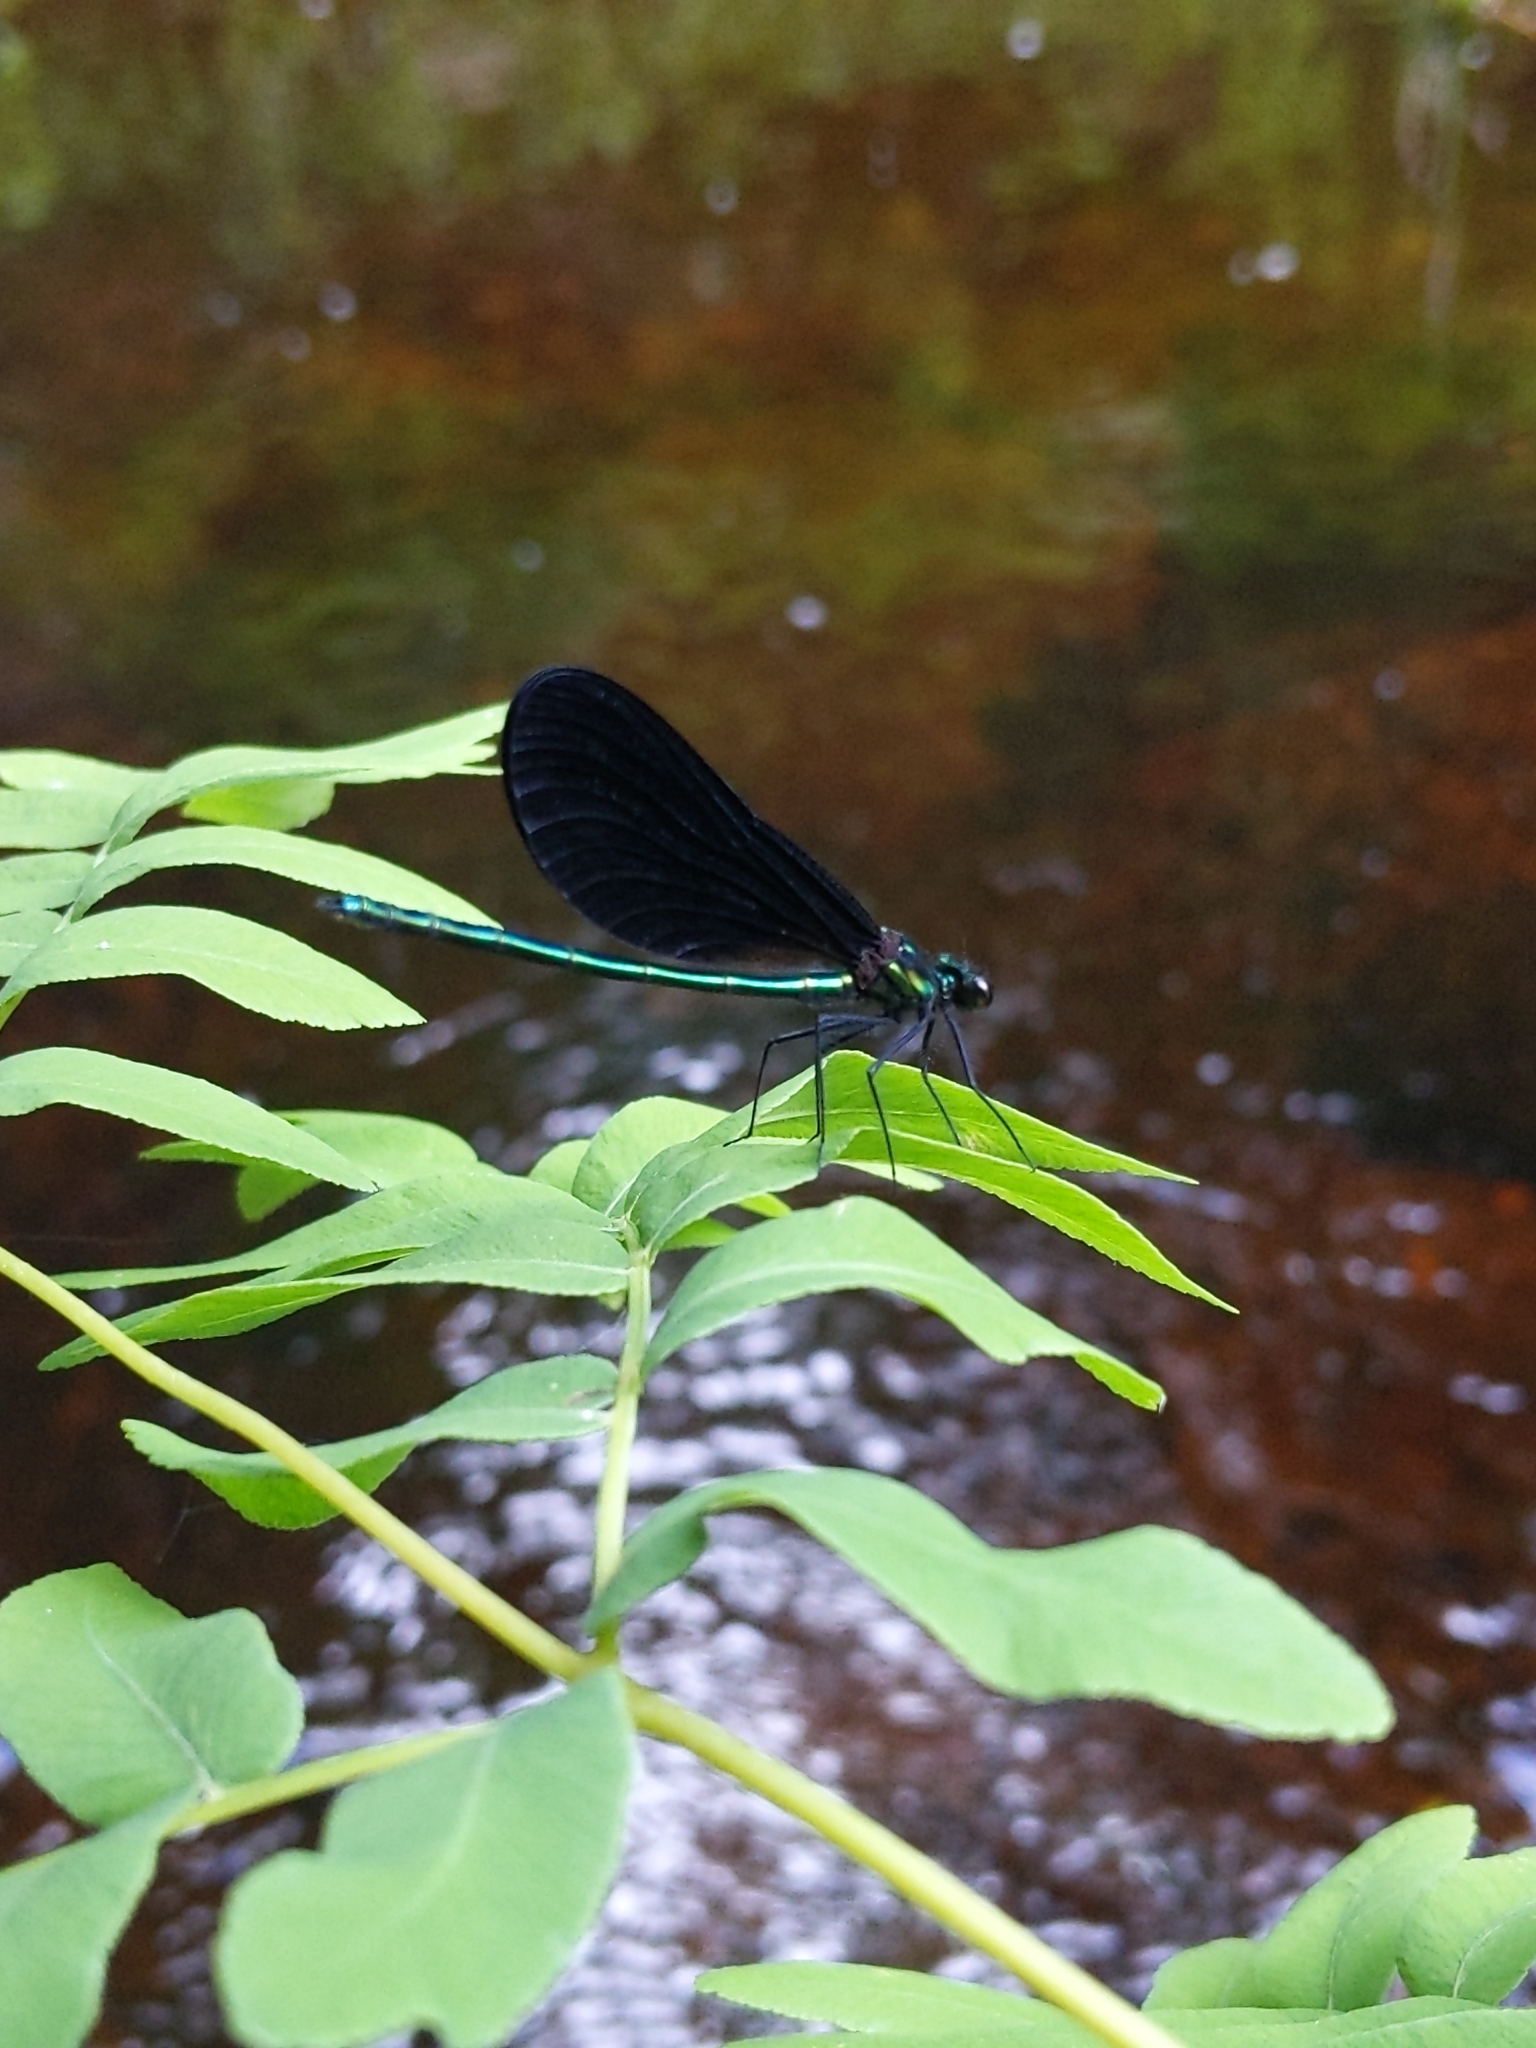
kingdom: Animalia
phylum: Arthropoda
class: Insecta
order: Odonata
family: Calopterygidae
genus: Calopteryx
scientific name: Calopteryx maculata
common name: Ebony jewelwing
